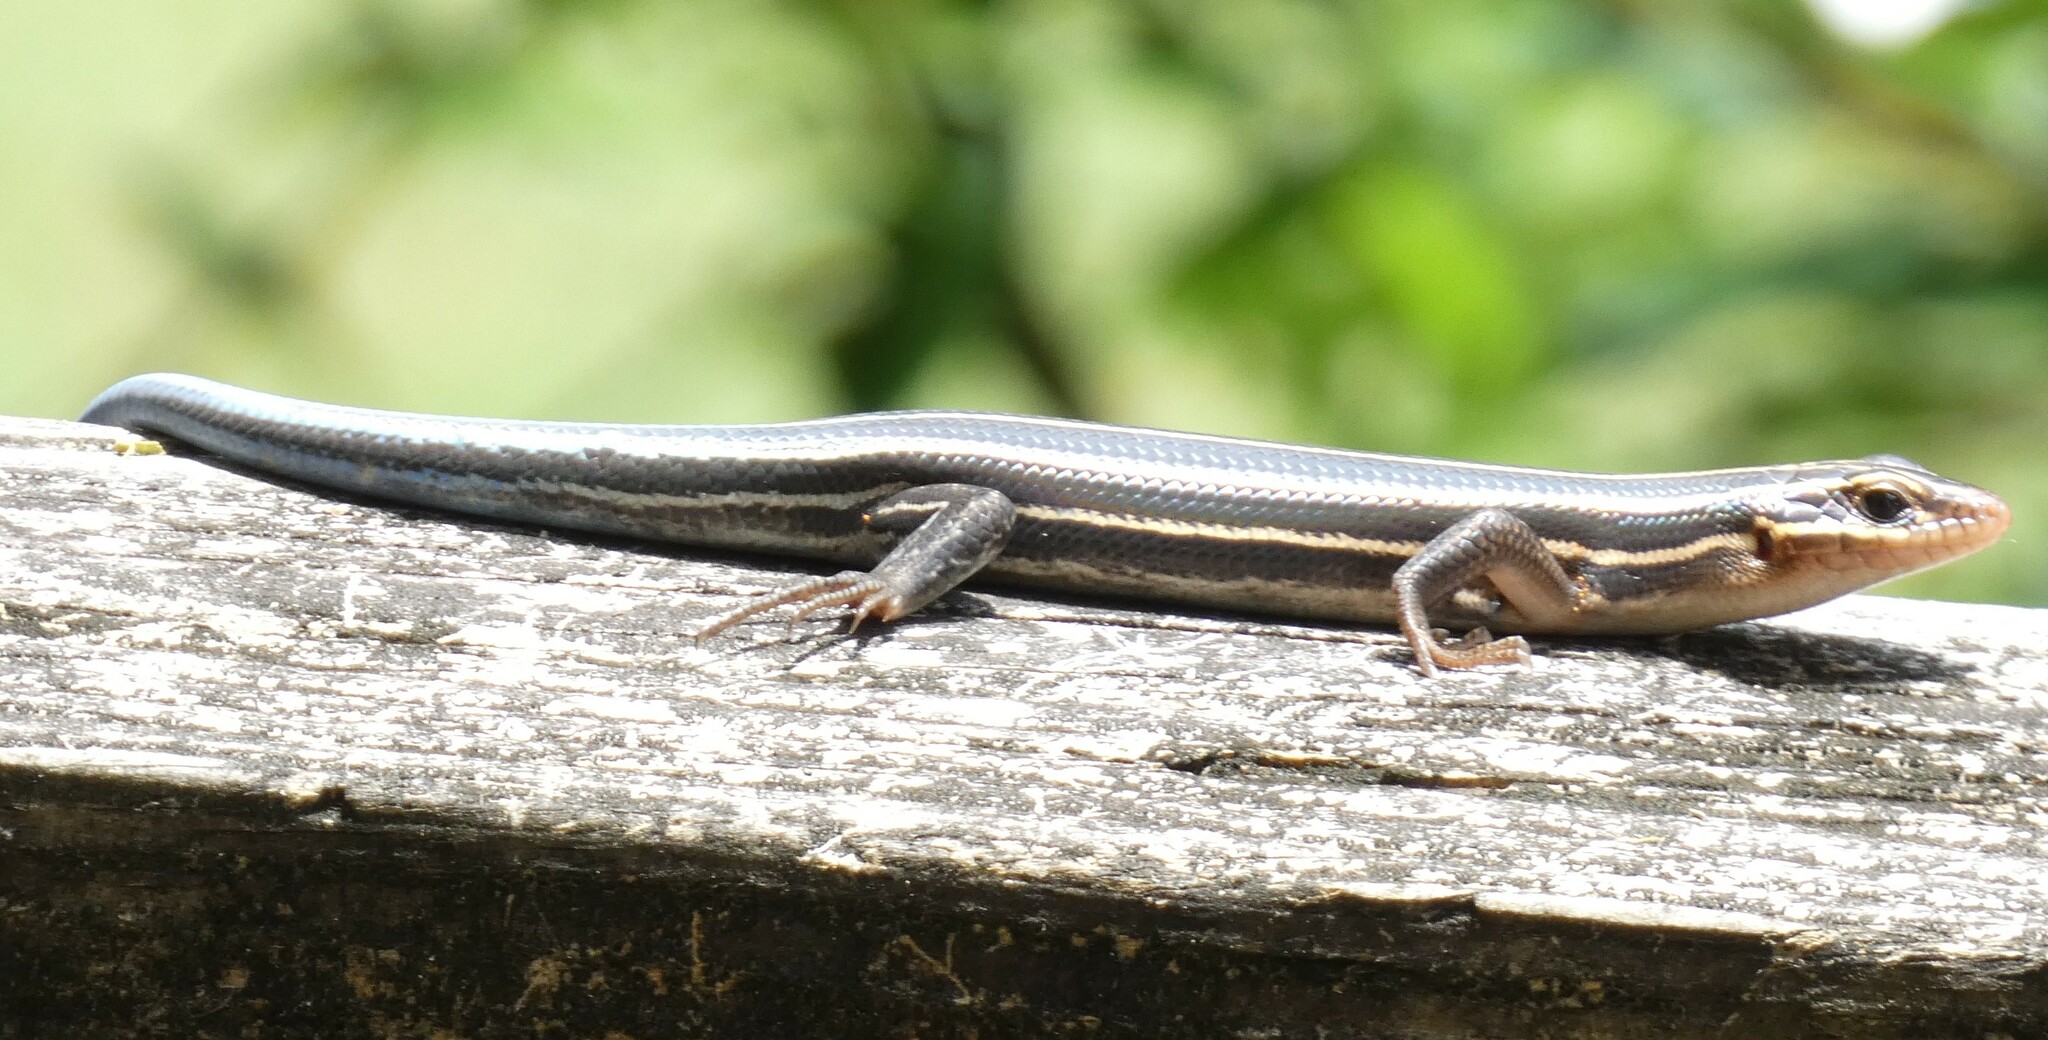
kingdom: Animalia
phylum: Chordata
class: Squamata
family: Scincidae
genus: Plestiodon
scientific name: Plestiodon laticeps
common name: Broadhead skink
